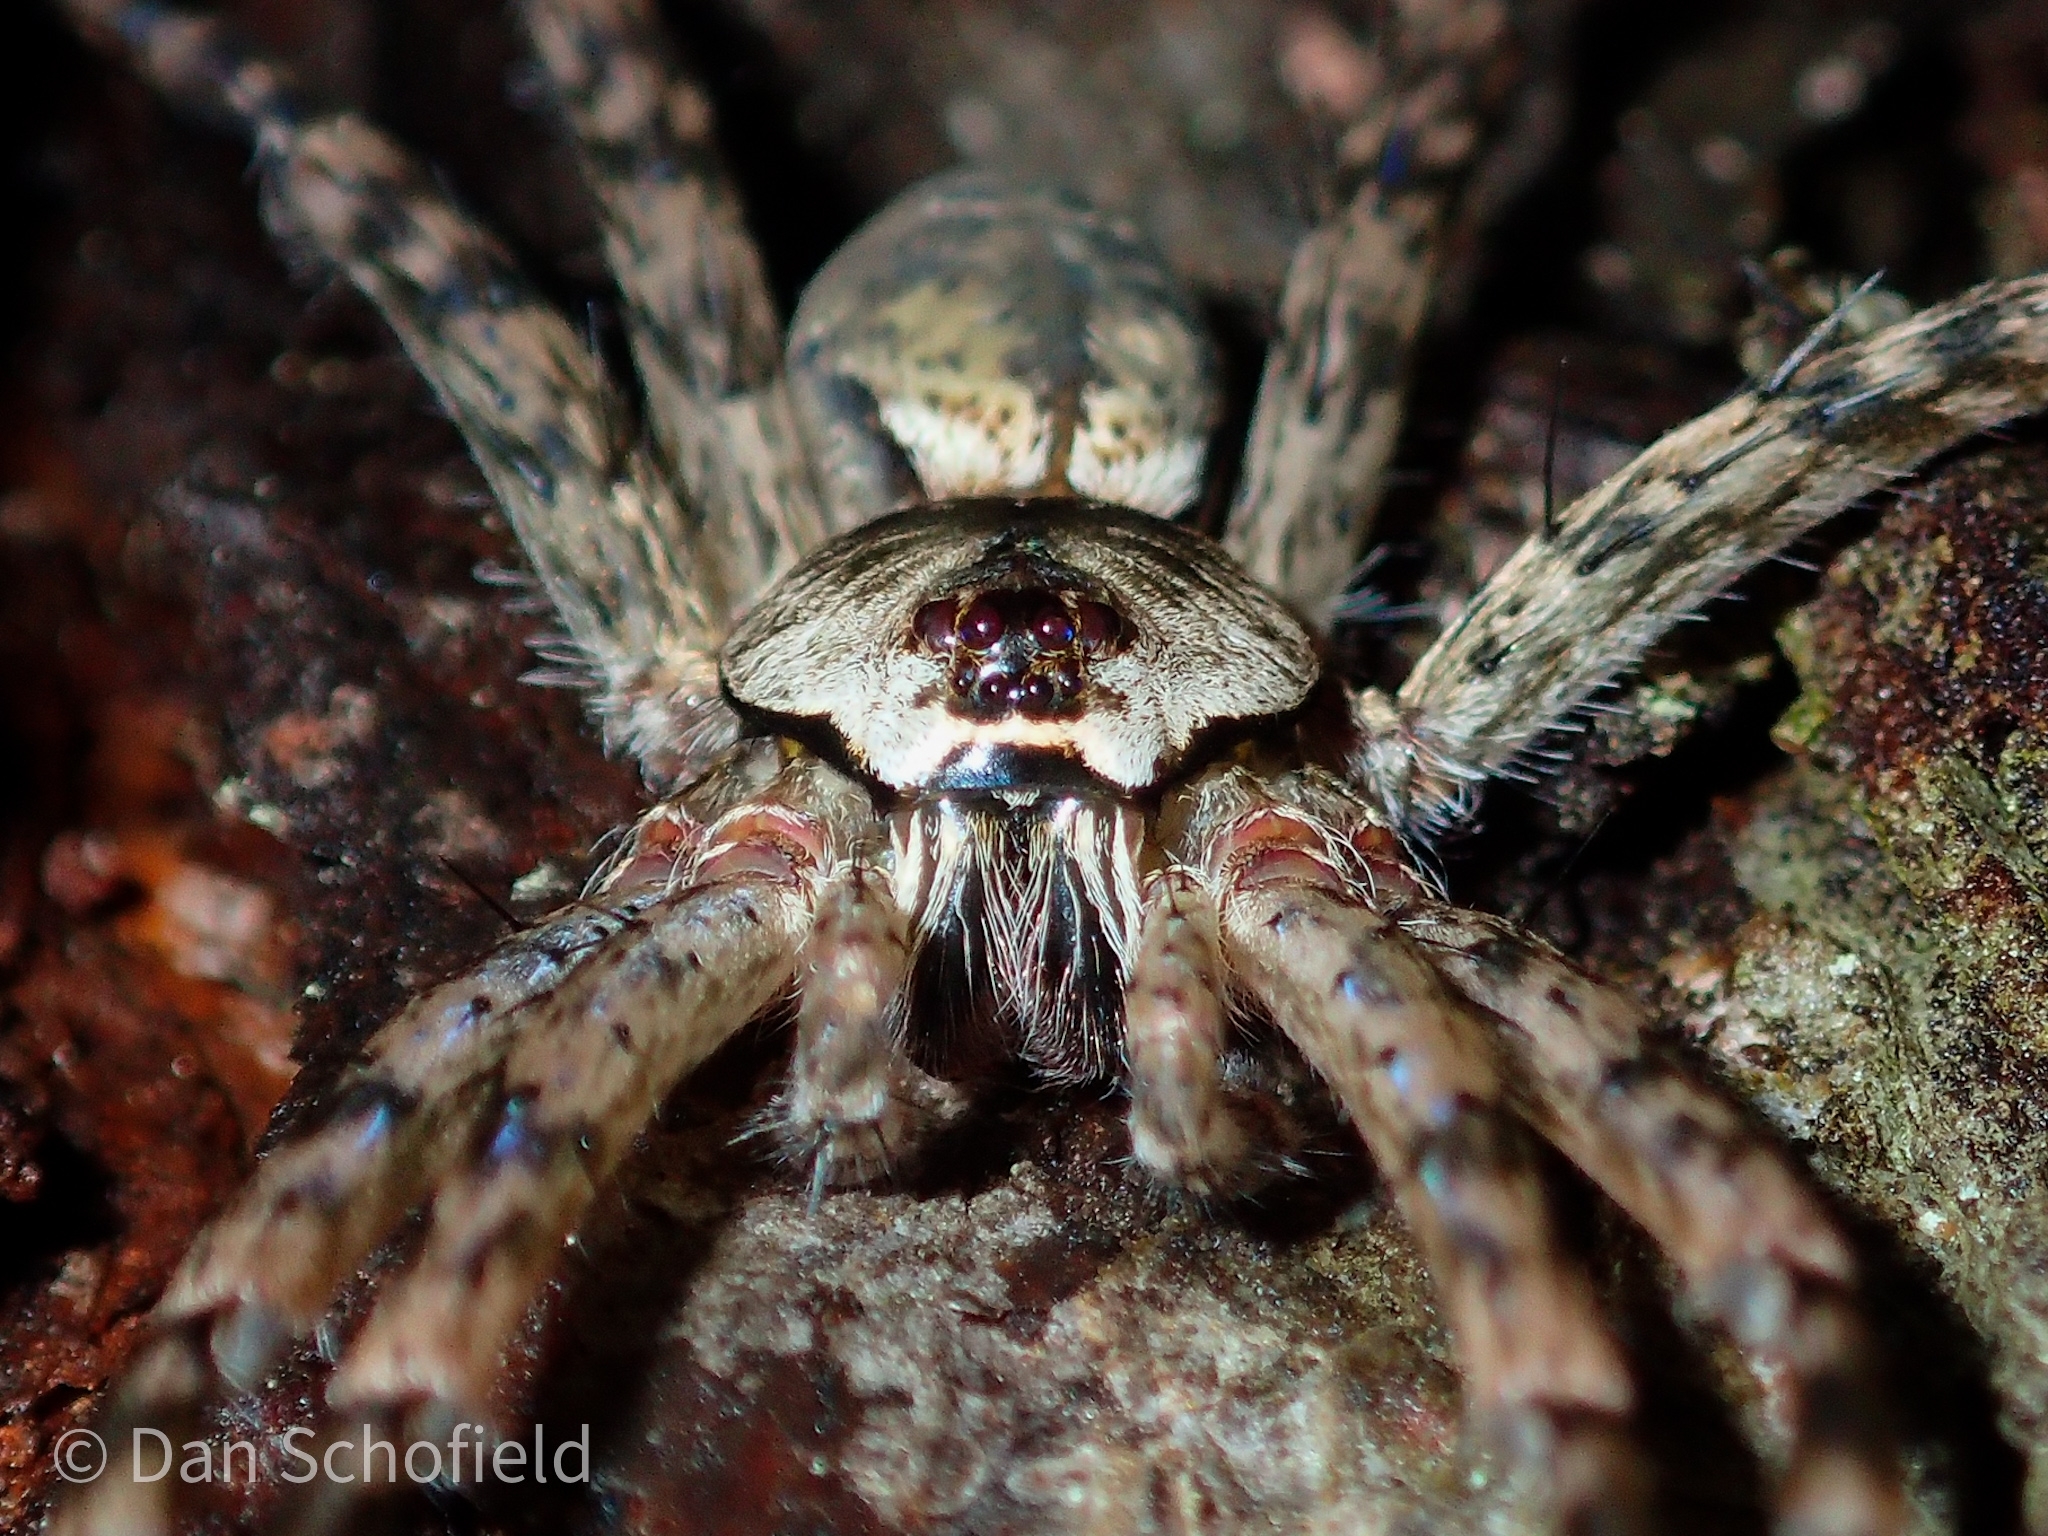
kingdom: Animalia
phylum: Arthropoda
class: Arachnida
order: Araneae
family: Pisauridae
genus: Dolomedes
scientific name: Dolomedes albineus
